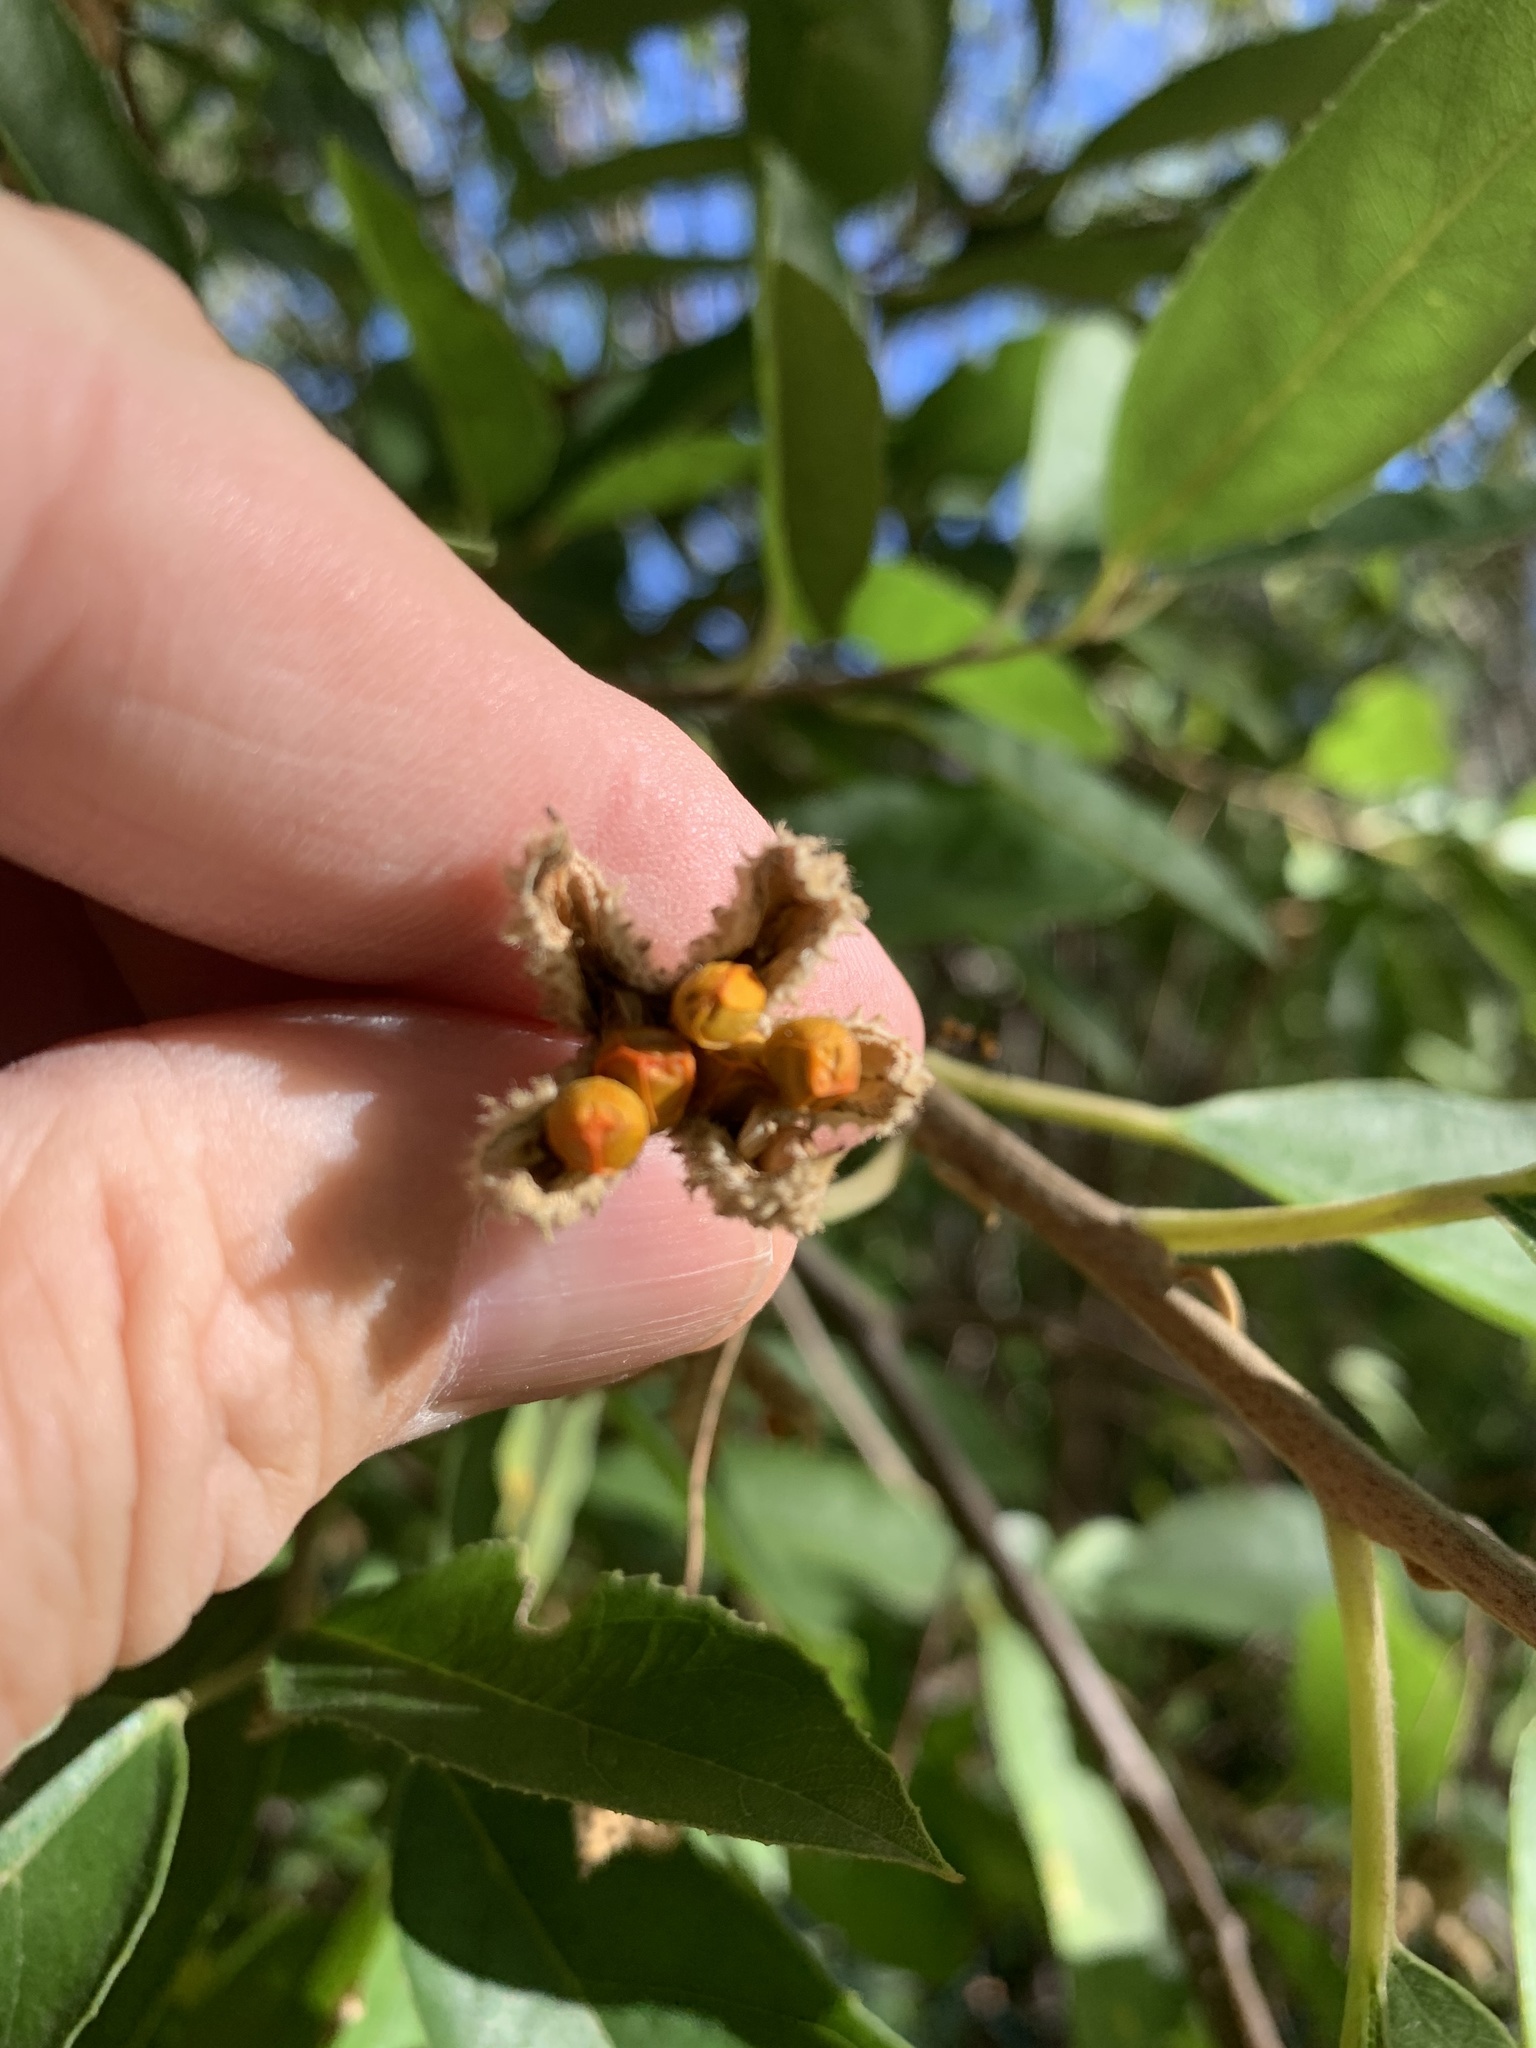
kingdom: Plantae
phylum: Tracheophyta
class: Magnoliopsida
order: Malpighiales
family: Achariaceae
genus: Kiggelaria
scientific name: Kiggelaria africana
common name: Wild peach
